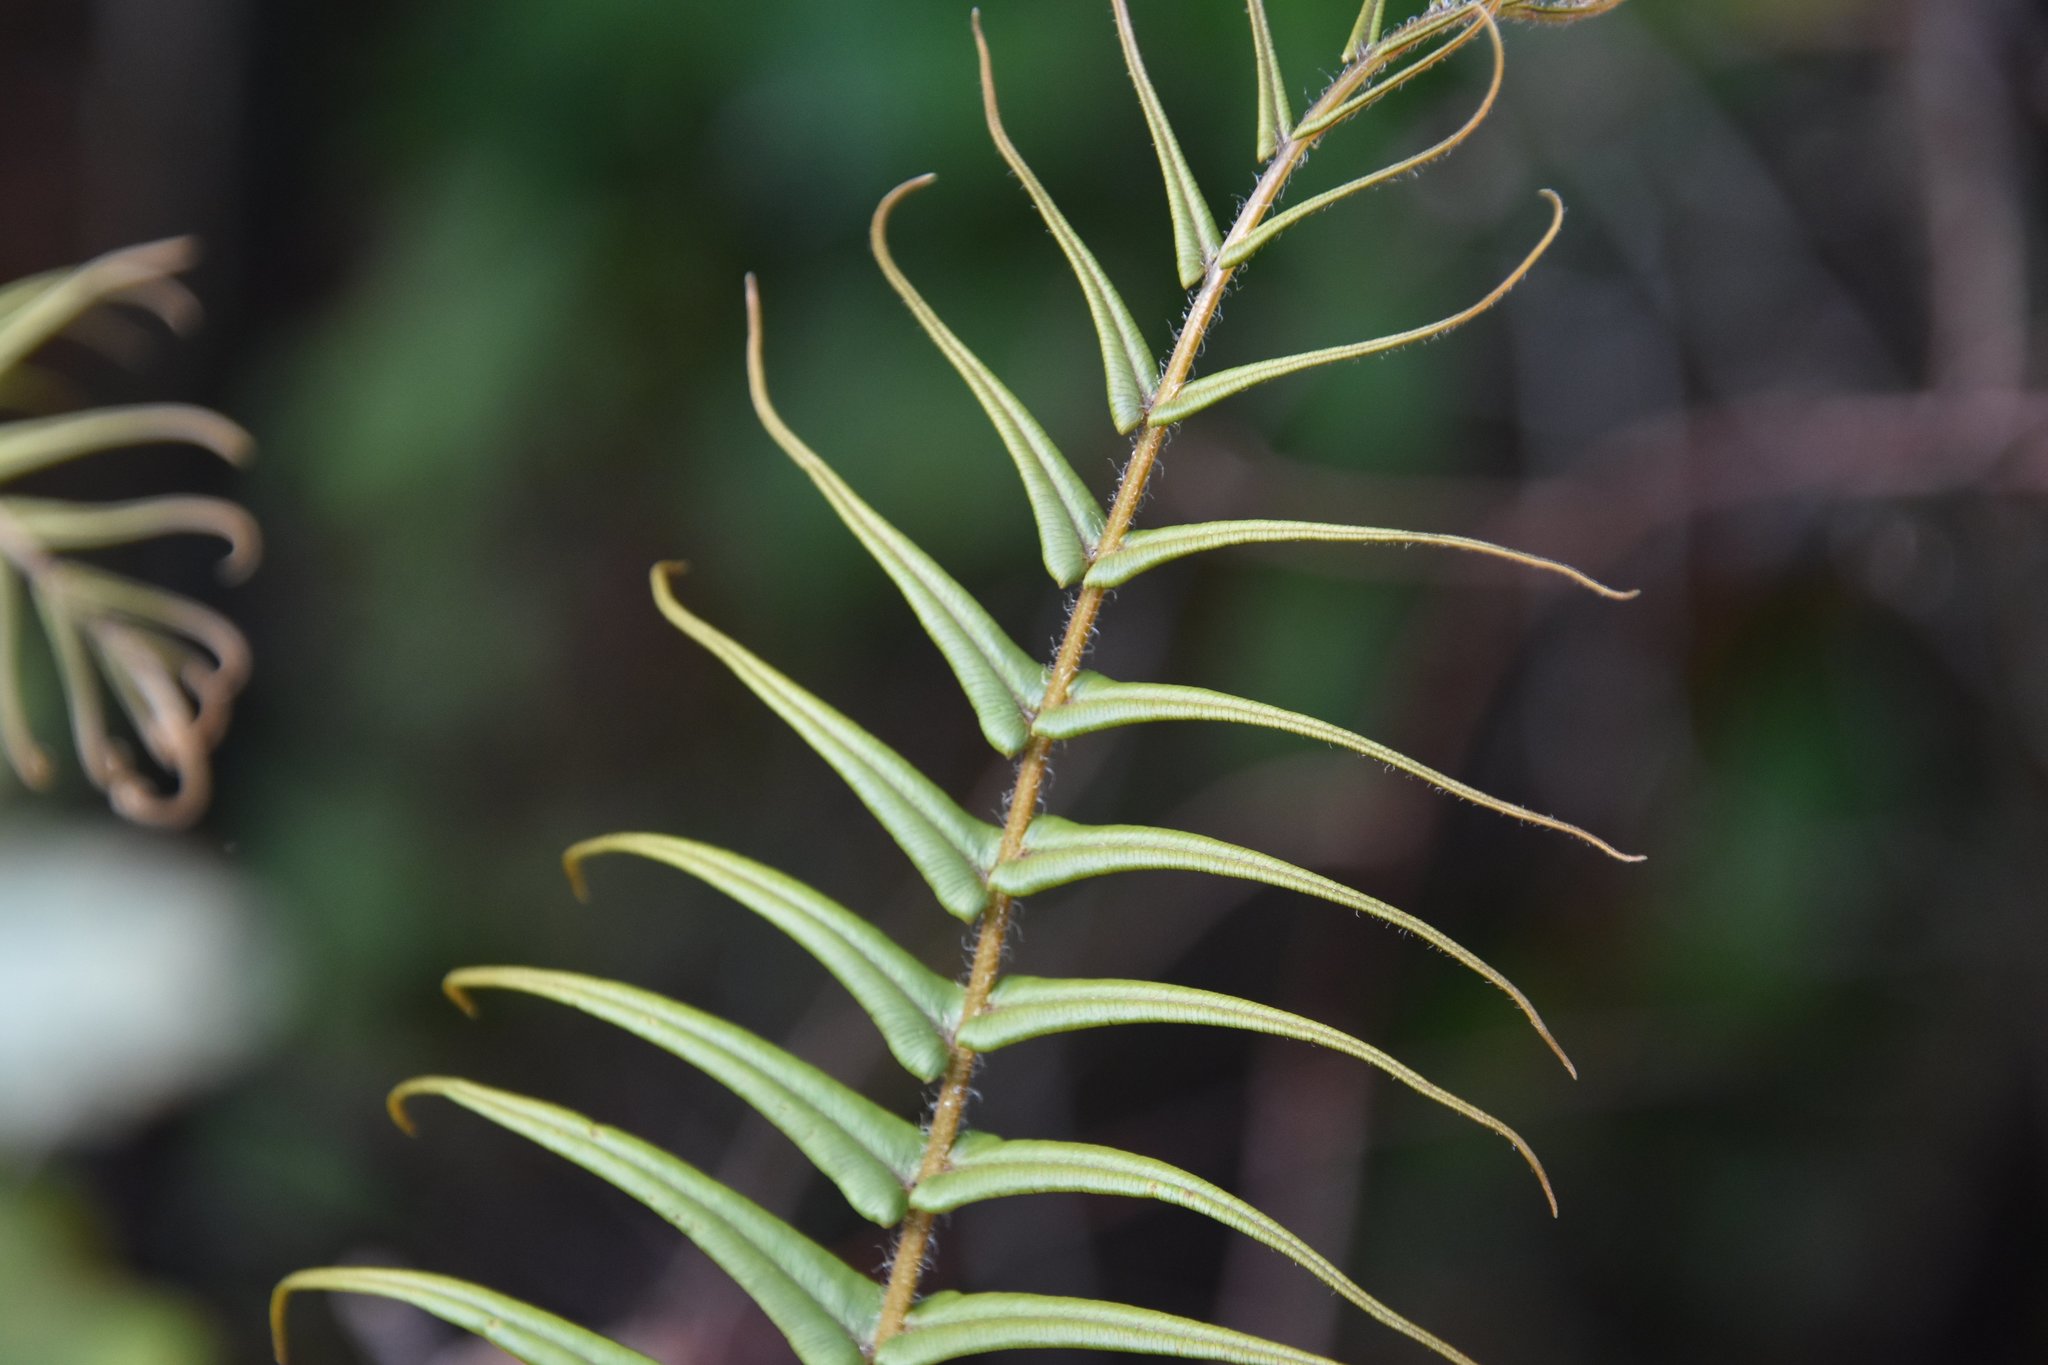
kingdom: Plantae
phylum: Tracheophyta
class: Polypodiopsida
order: Polypodiales
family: Pteridaceae
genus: Pteris
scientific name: Pteris vittata
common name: Ladder brake
